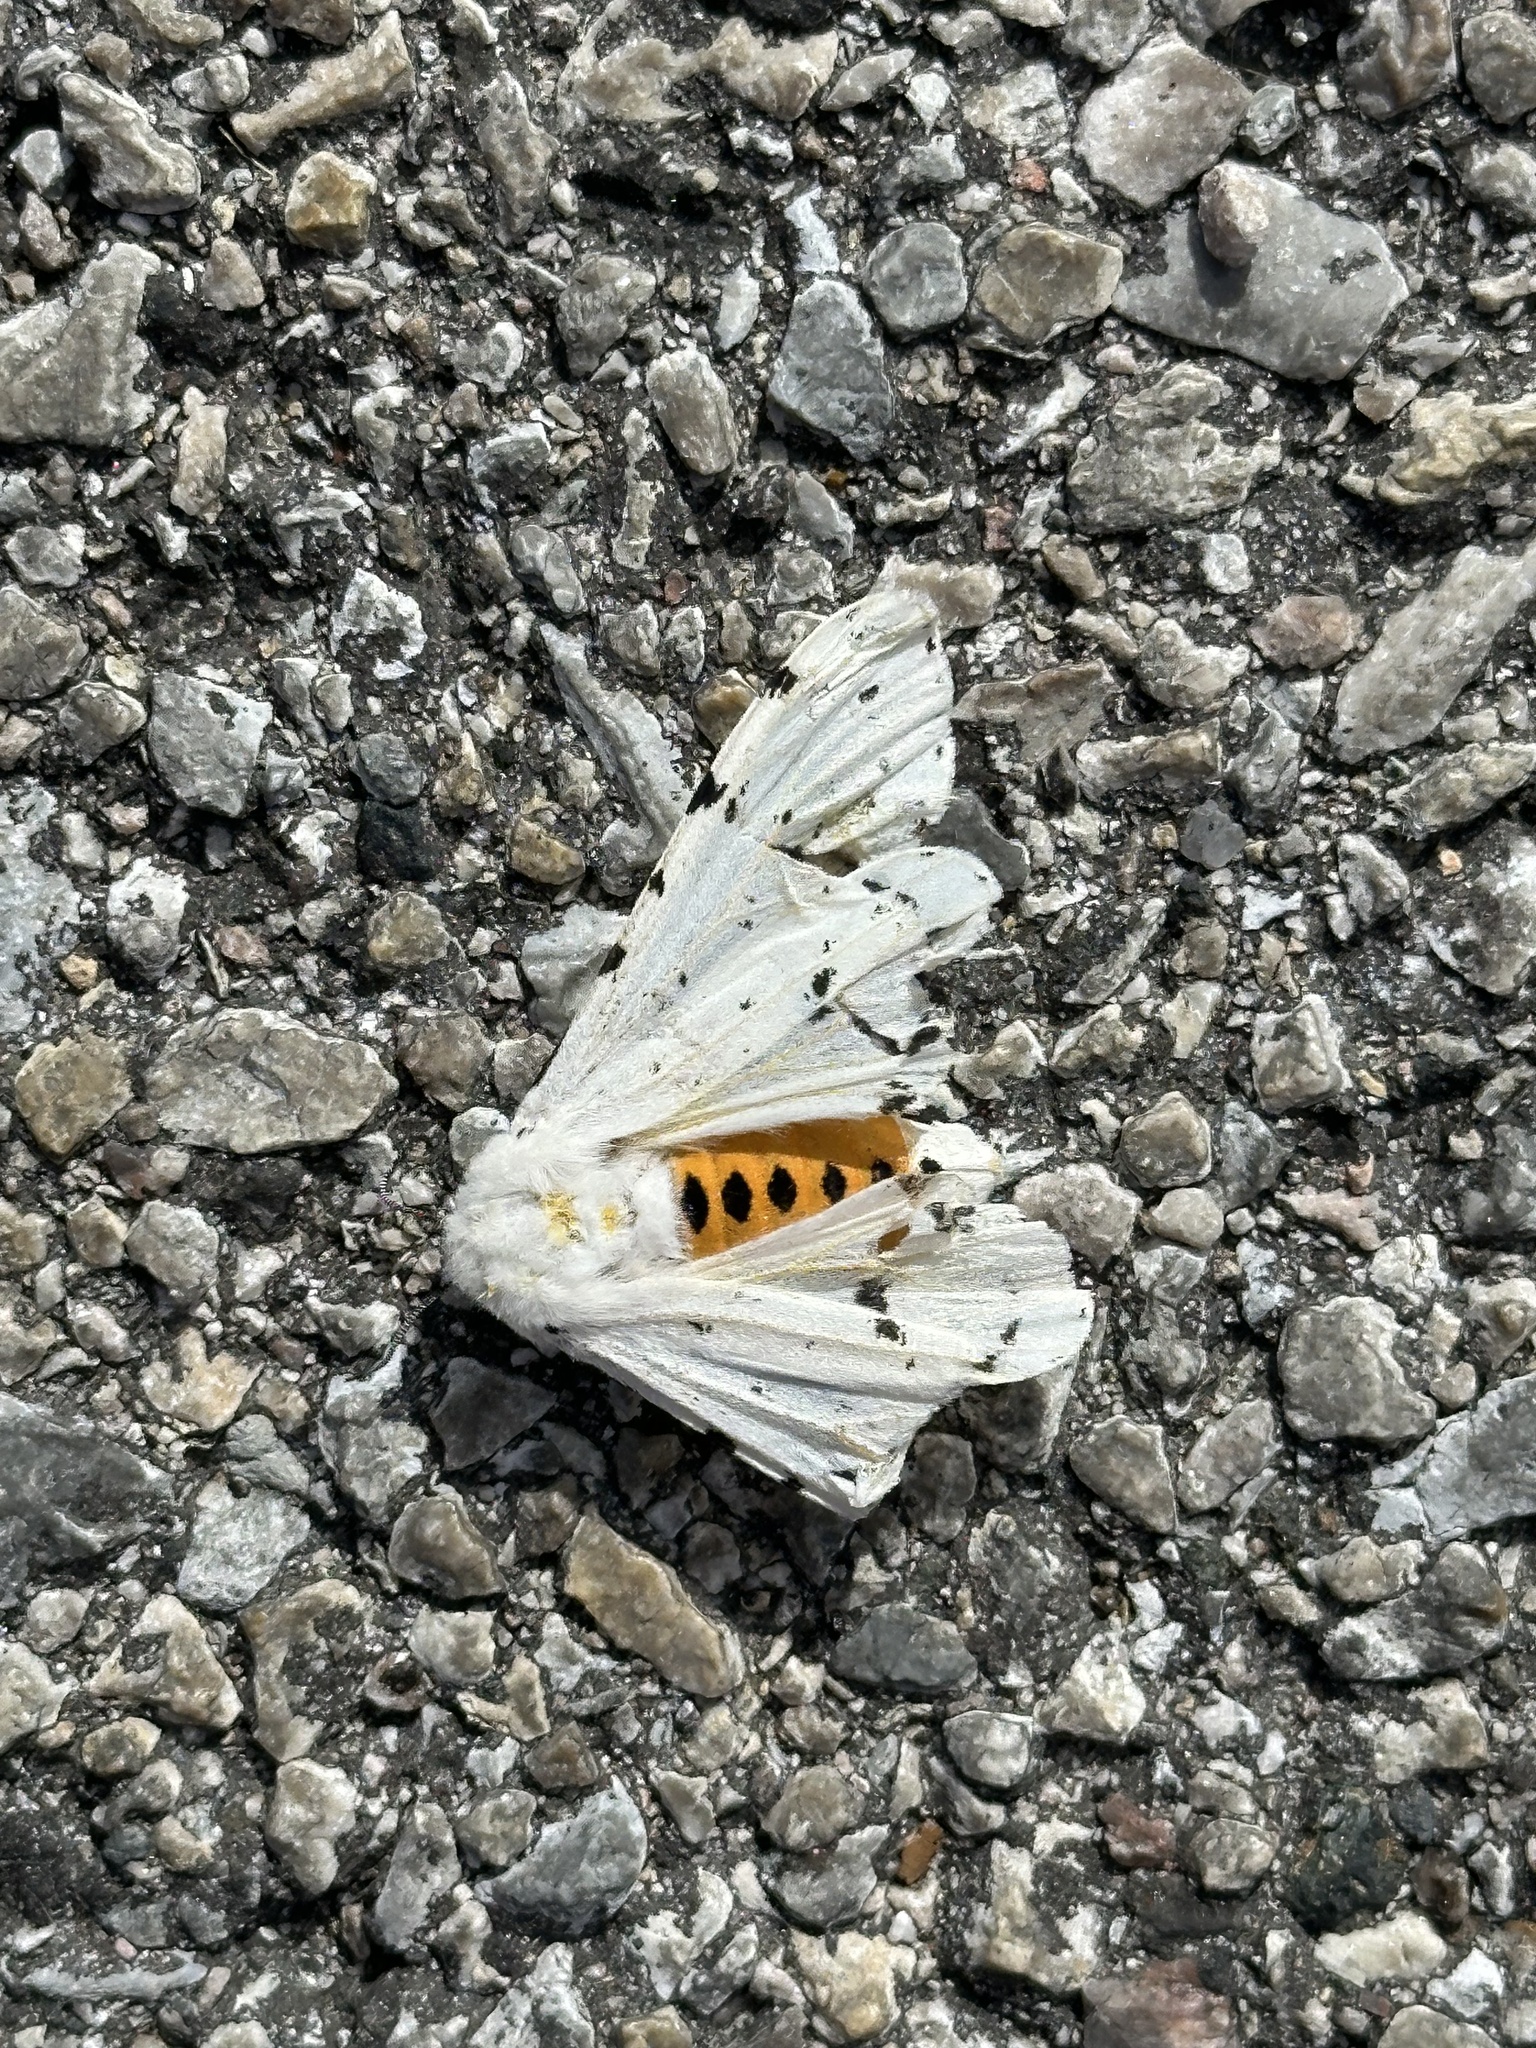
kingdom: Animalia
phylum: Arthropoda
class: Insecta
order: Lepidoptera
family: Erebidae
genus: Estigmene
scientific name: Estigmene acrea
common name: Salt marsh moth
